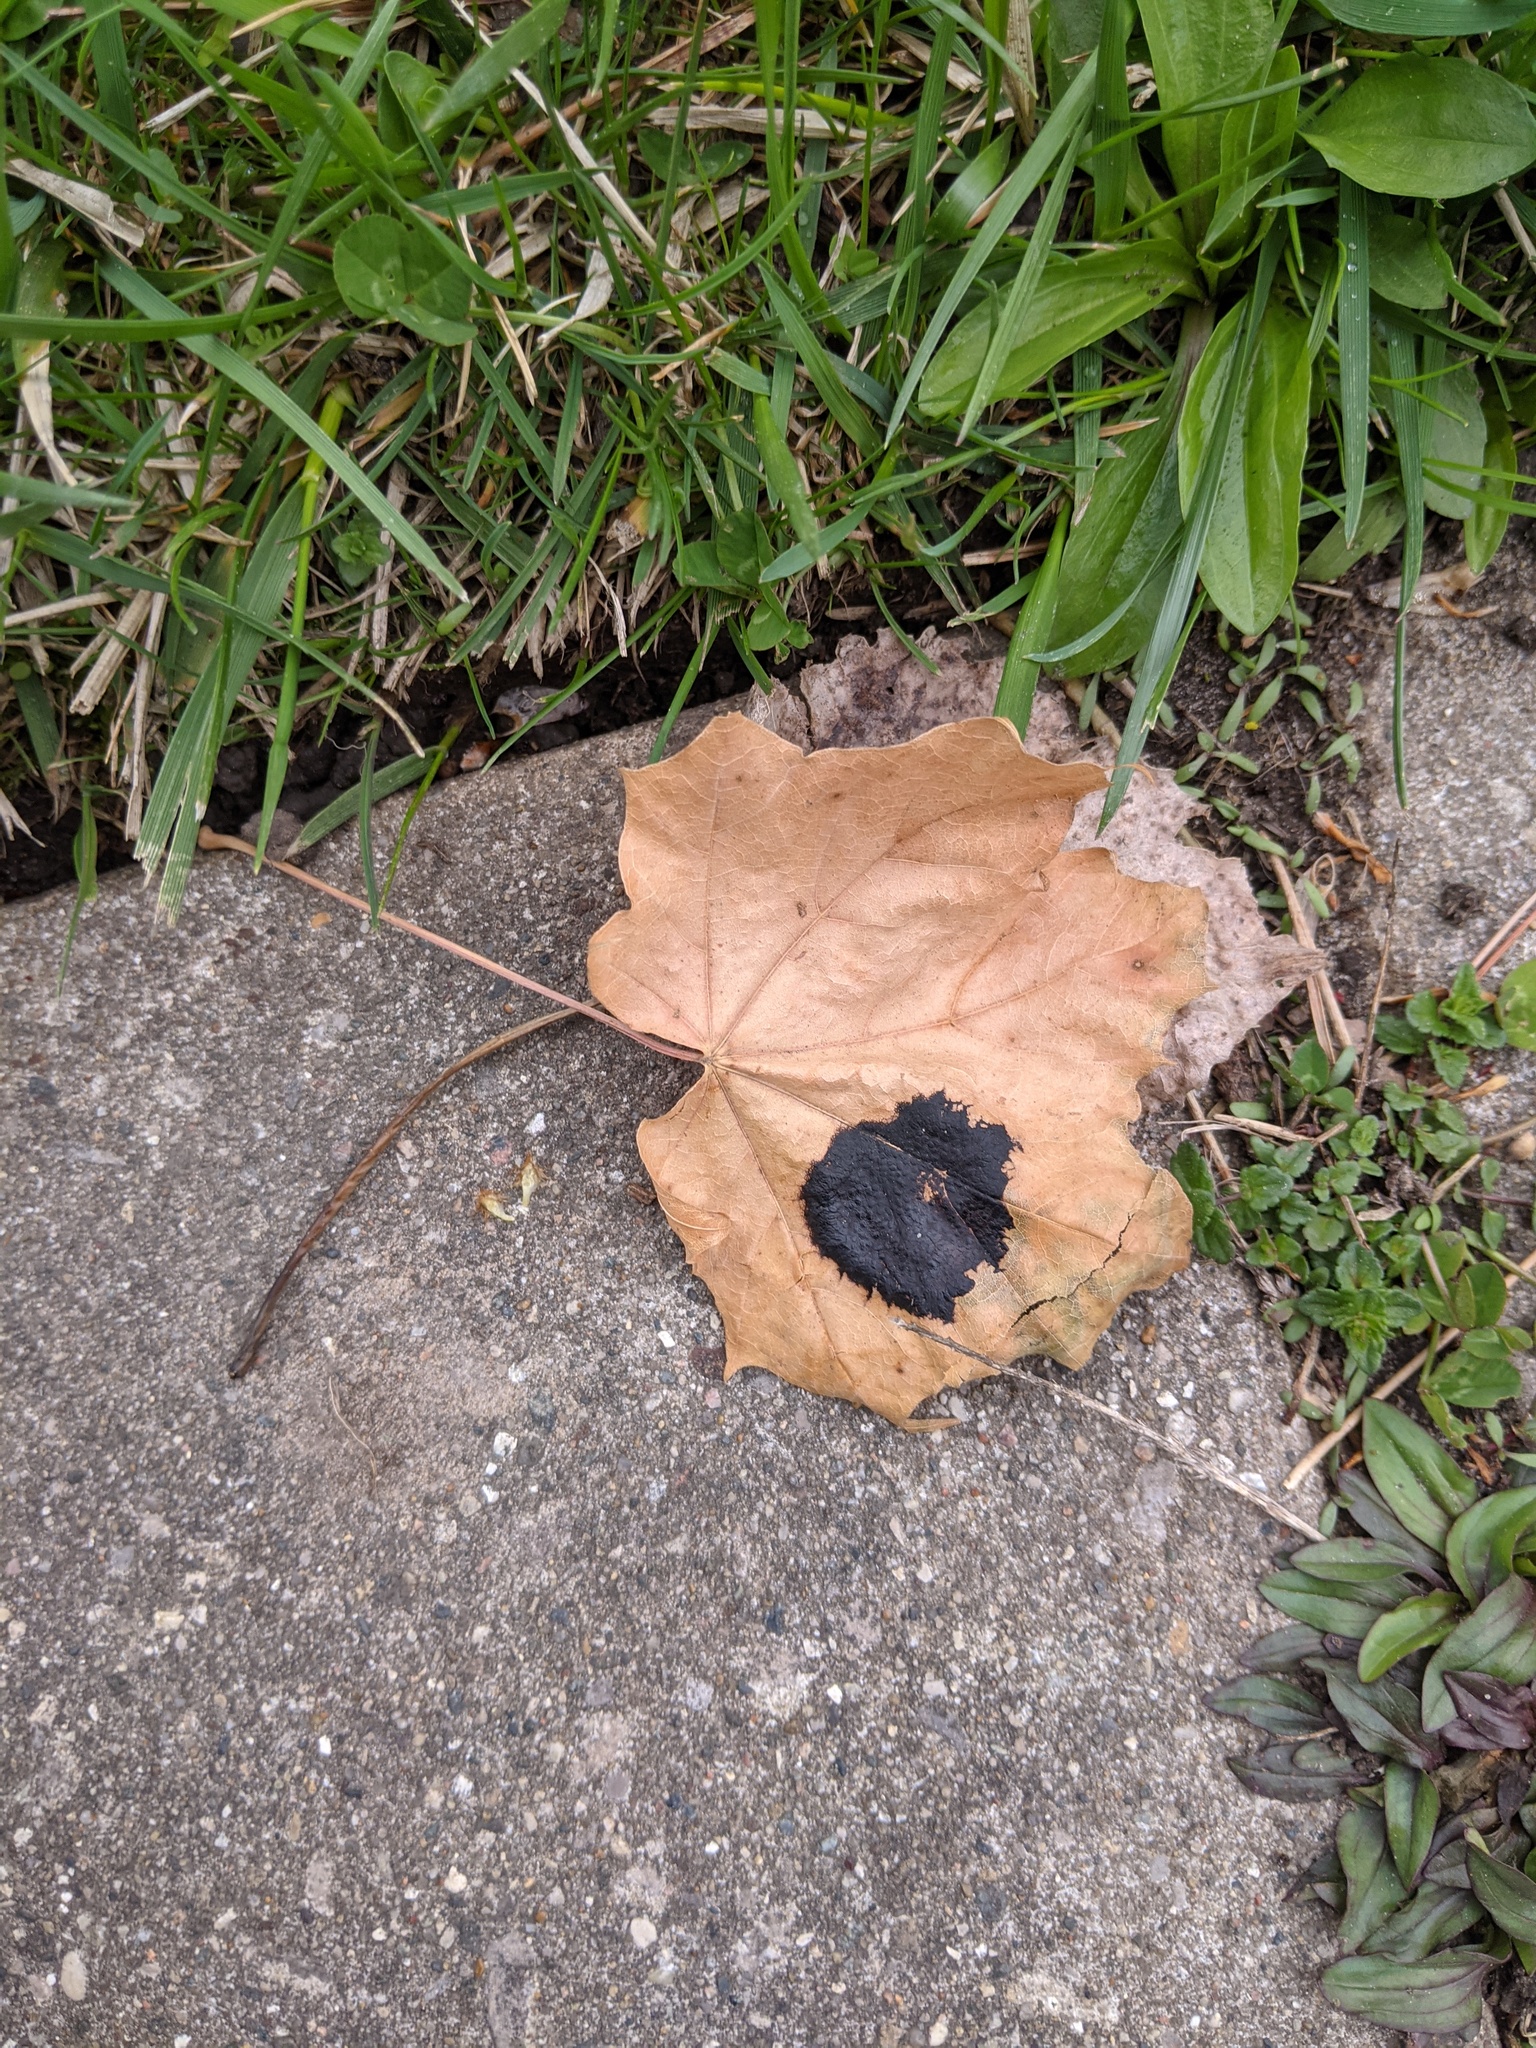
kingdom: Fungi
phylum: Ascomycota
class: Leotiomycetes
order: Rhytismatales
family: Rhytismataceae
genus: Rhytisma
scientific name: Rhytisma acerinum
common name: European tar spot
